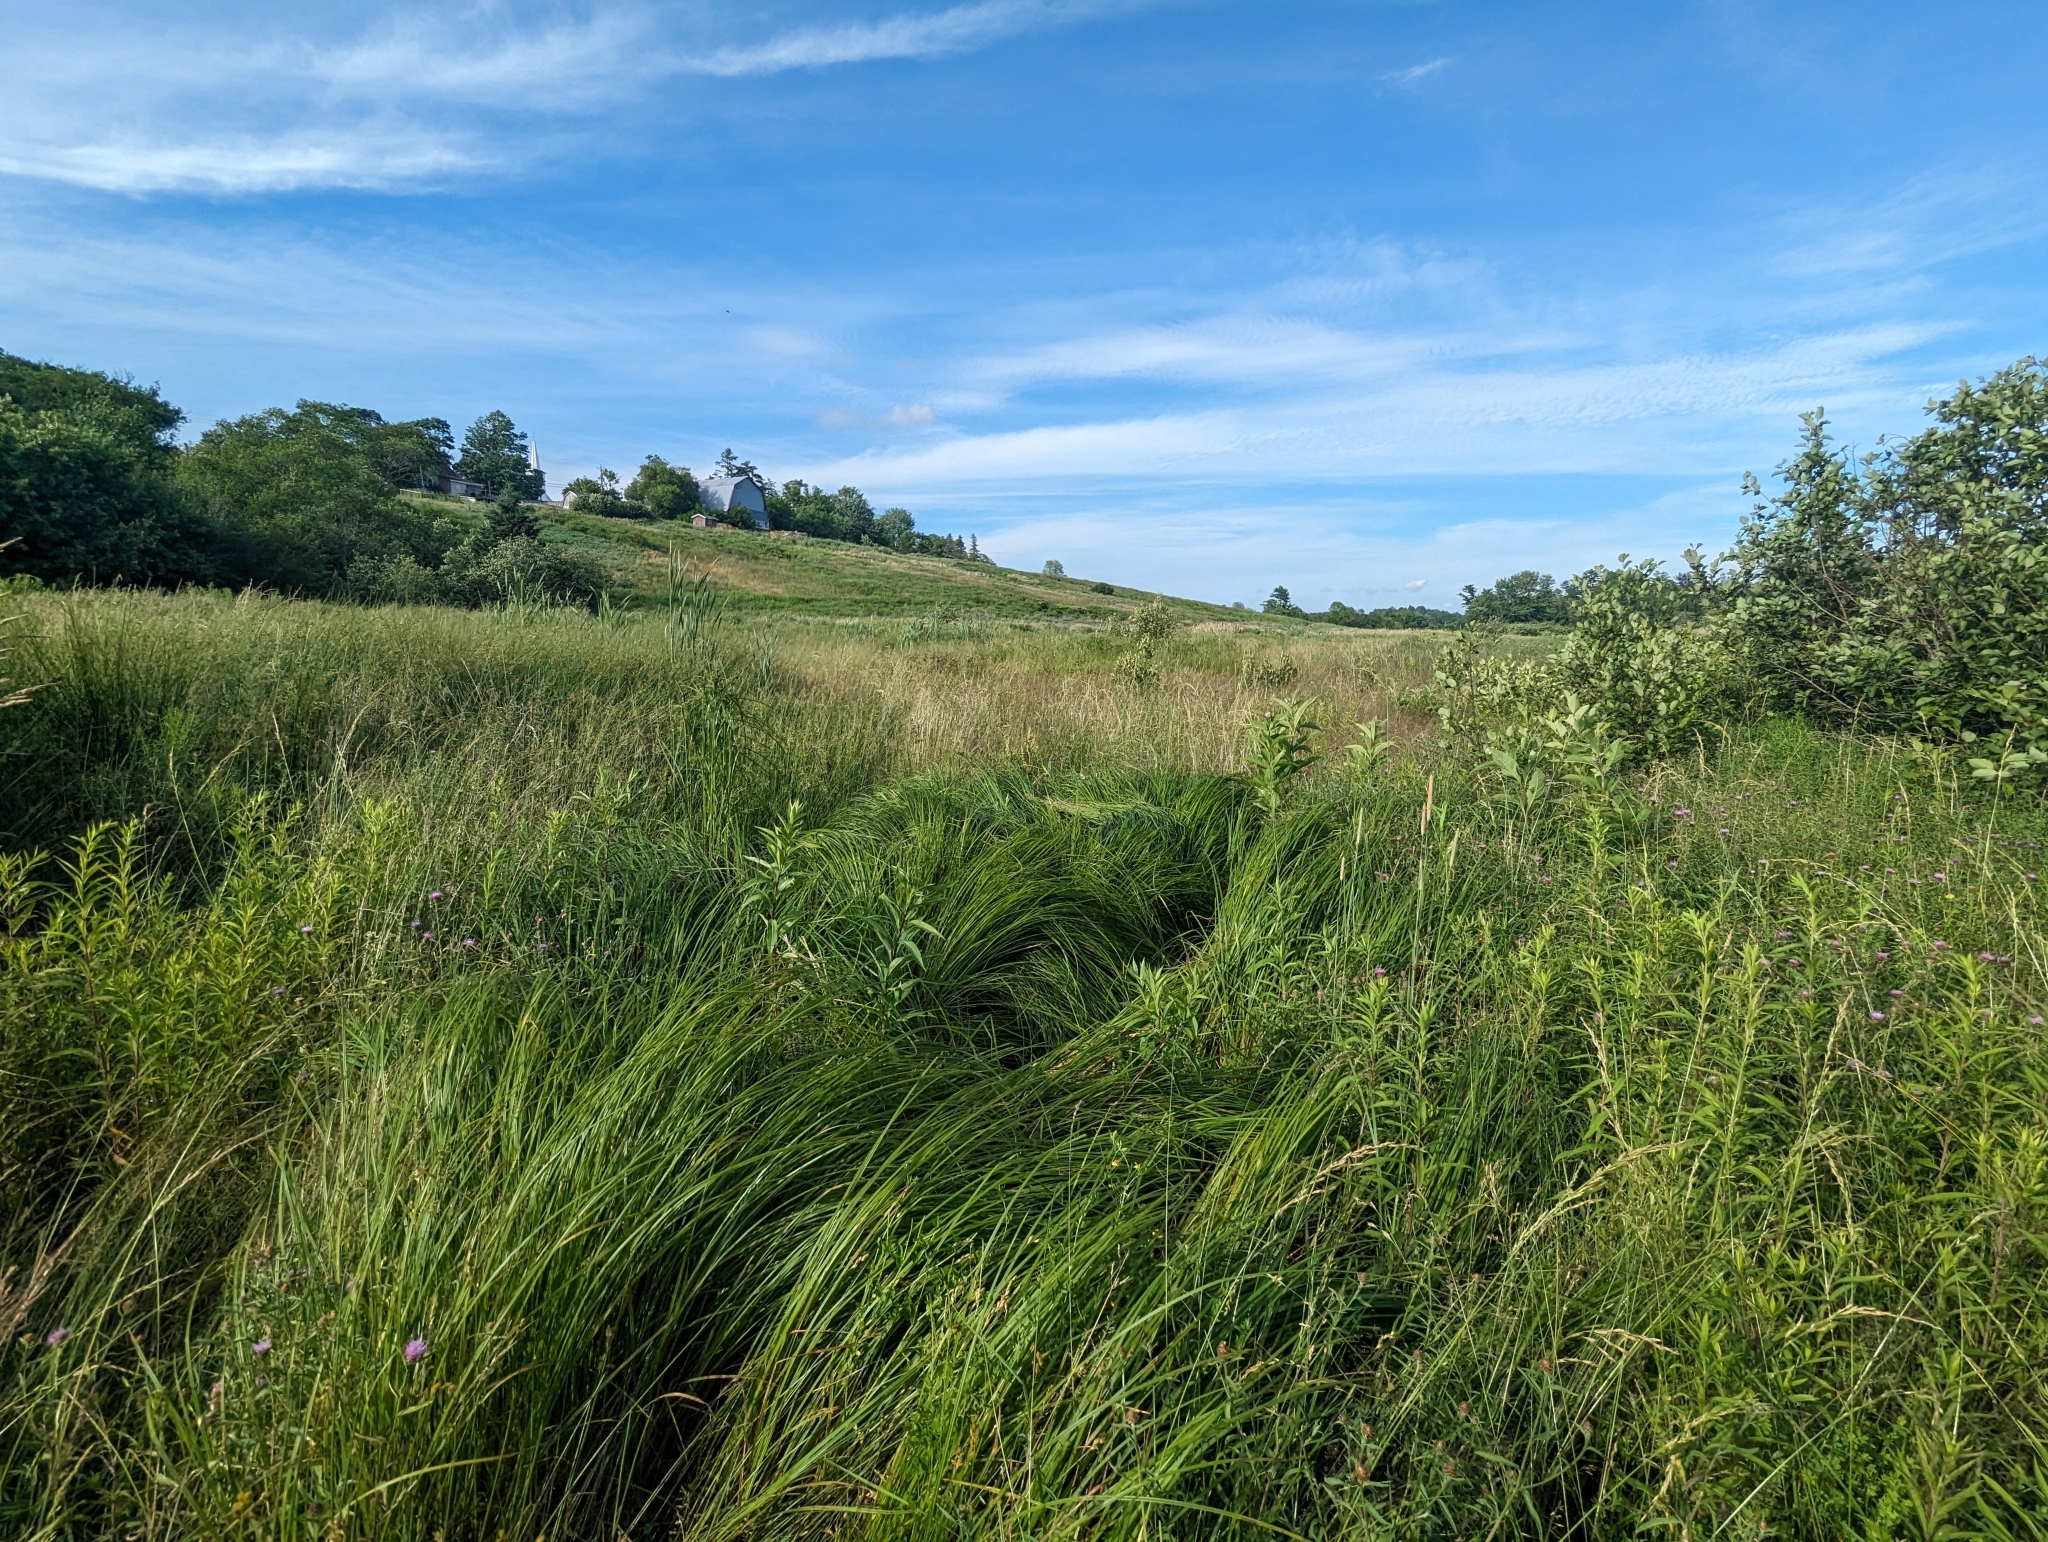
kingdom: Plantae
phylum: Tracheophyta
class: Liliopsida
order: Poales
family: Cyperaceae
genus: Carex
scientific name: Carex haydenii
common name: Hayden's sedge
